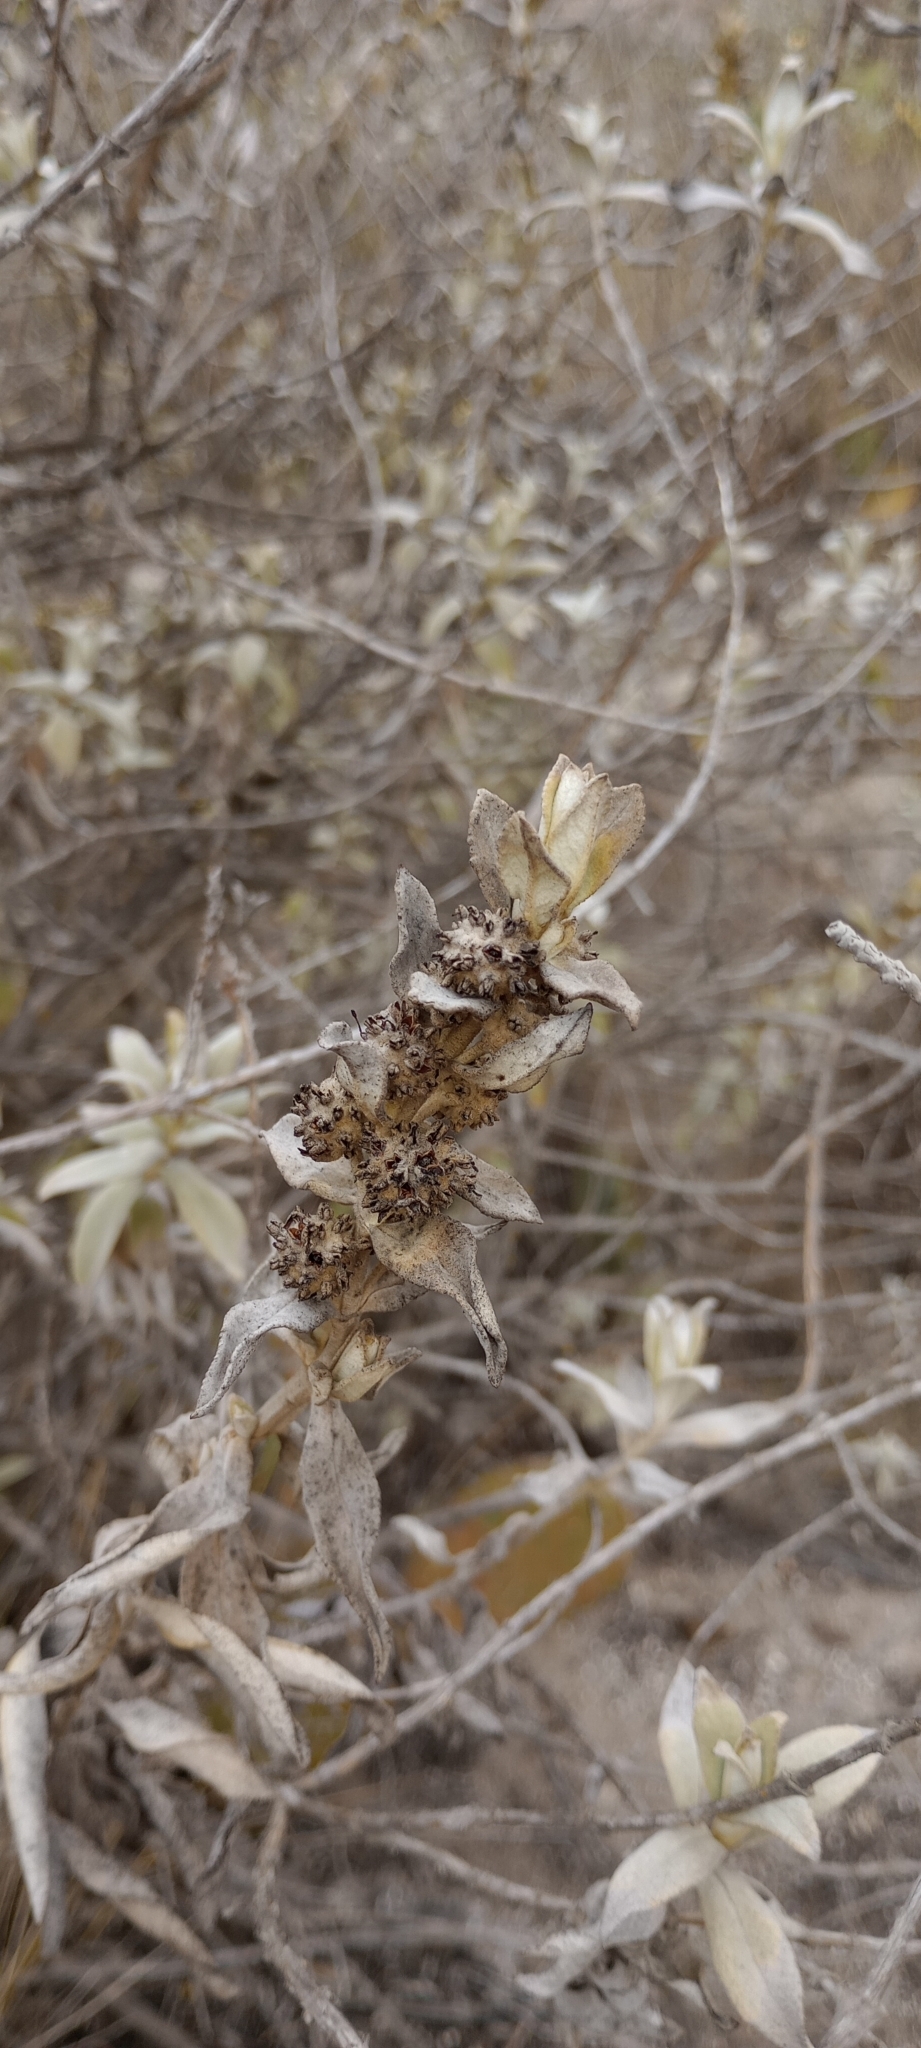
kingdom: Plantae
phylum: Tracheophyta
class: Magnoliopsida
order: Lamiales
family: Scrophulariaceae
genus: Buddleja
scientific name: Buddleja perfoliata
